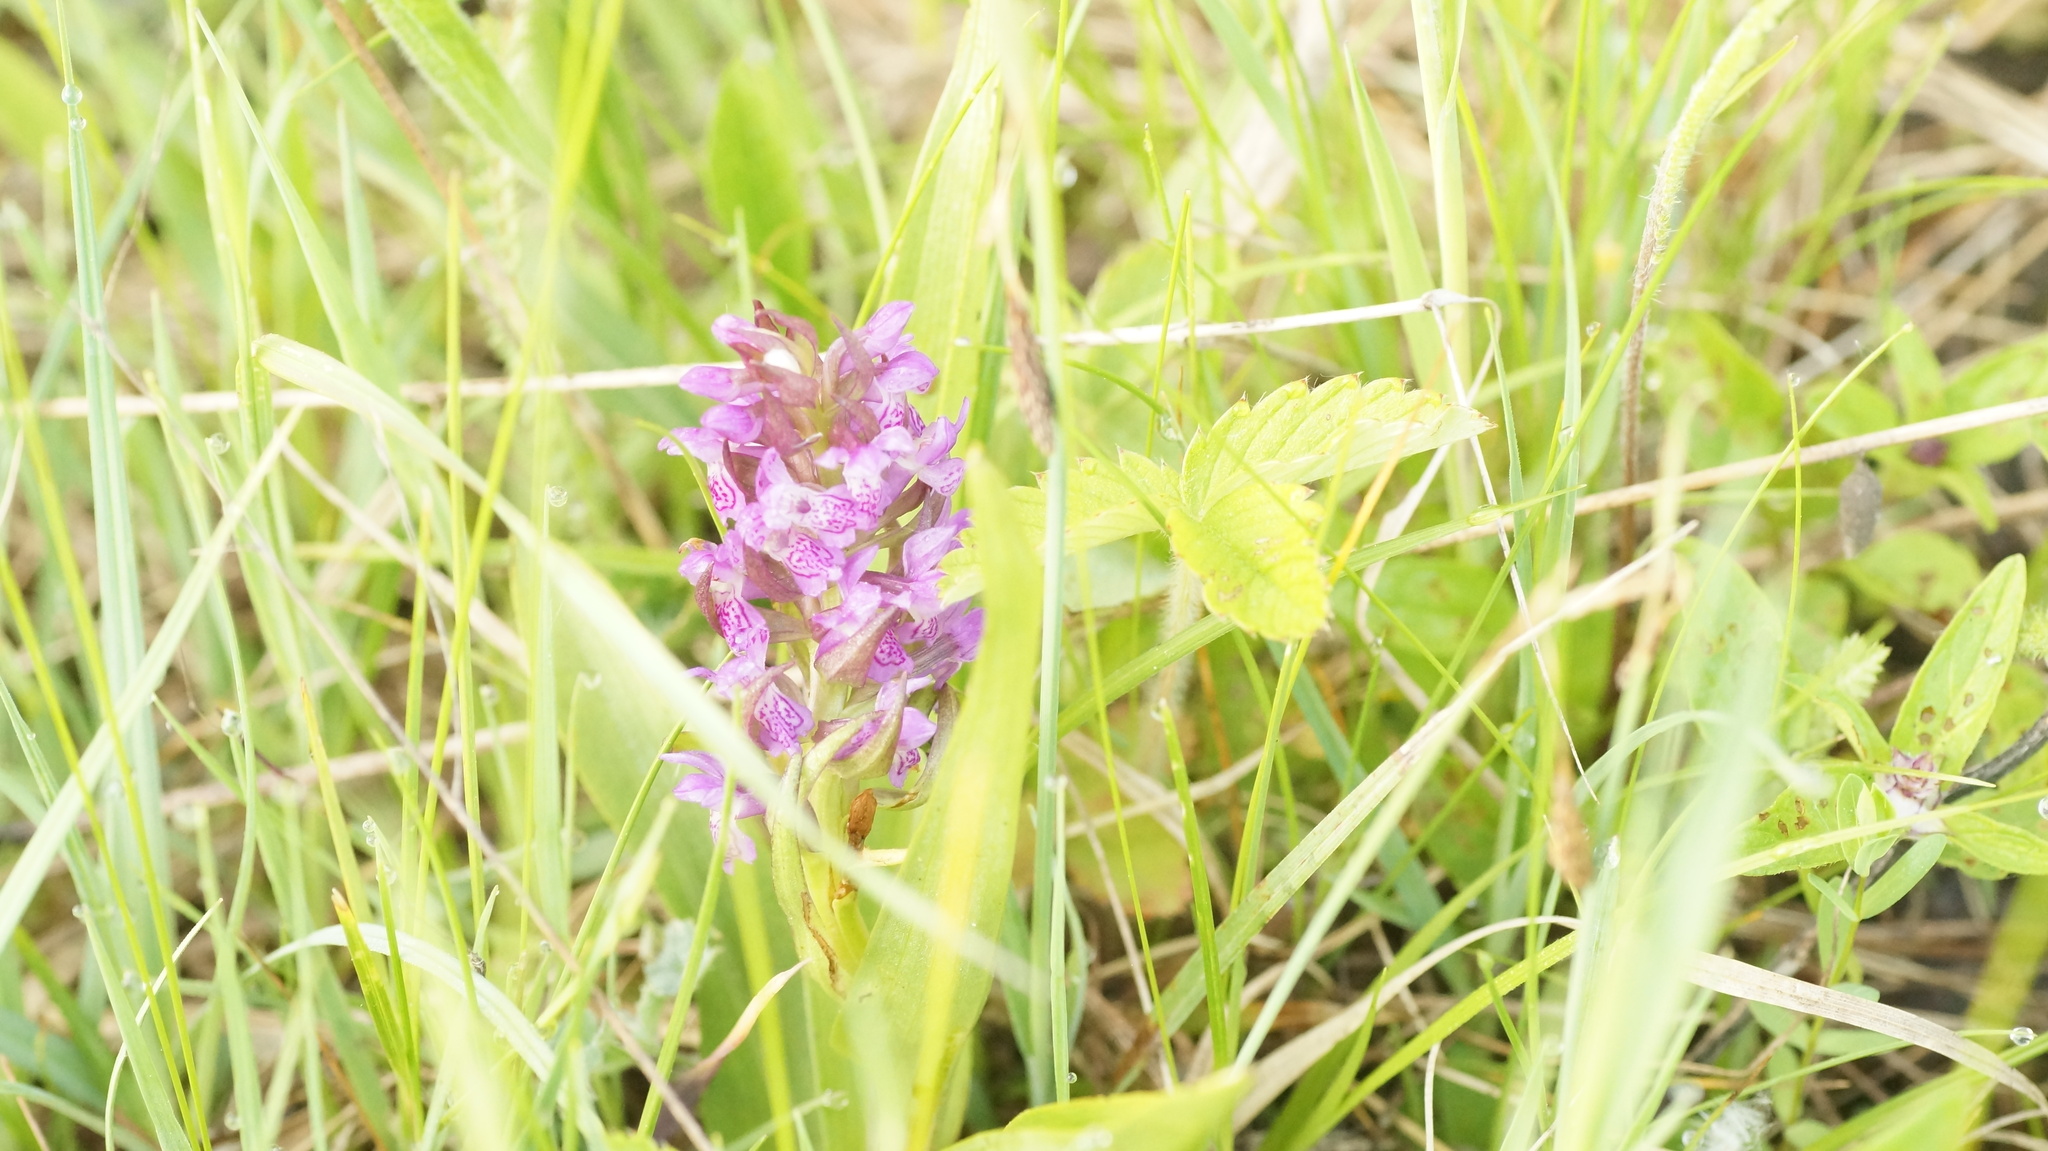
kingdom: Plantae
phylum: Tracheophyta
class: Liliopsida
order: Asparagales
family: Orchidaceae
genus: Dactylorhiza
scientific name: Dactylorhiza incarnata
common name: Early marsh-orchid
